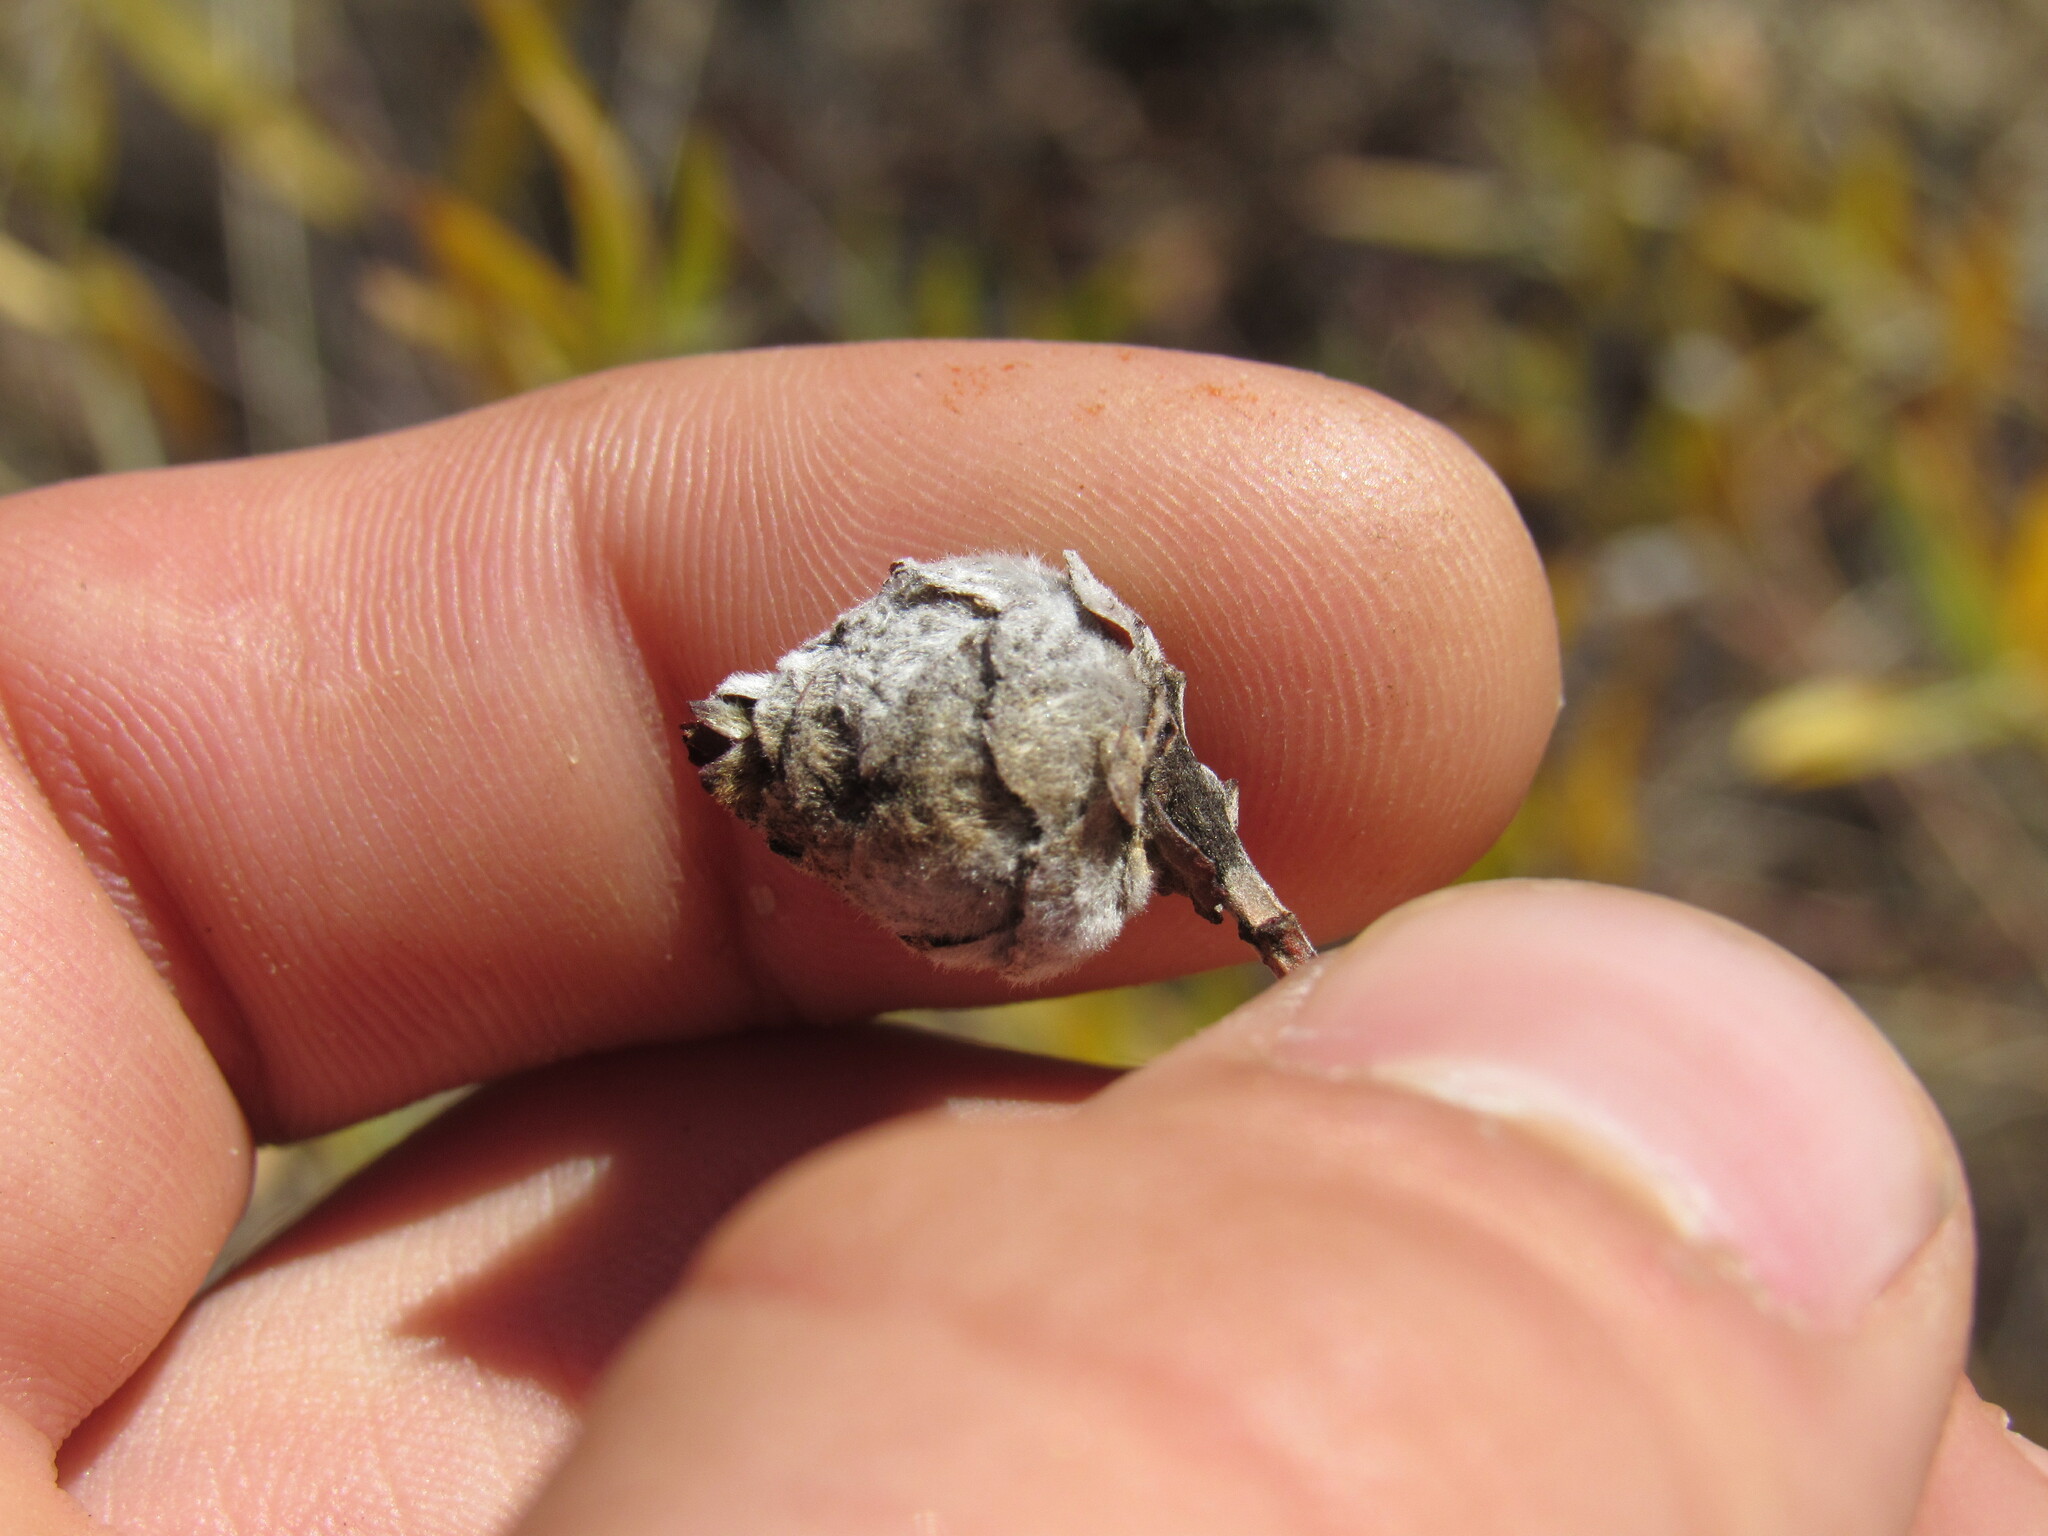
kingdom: Animalia
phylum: Arthropoda
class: Insecta
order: Diptera
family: Cecidomyiidae
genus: Rabdophaga
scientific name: Rabdophaga strobiloides
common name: Willow pinecone gall midge
